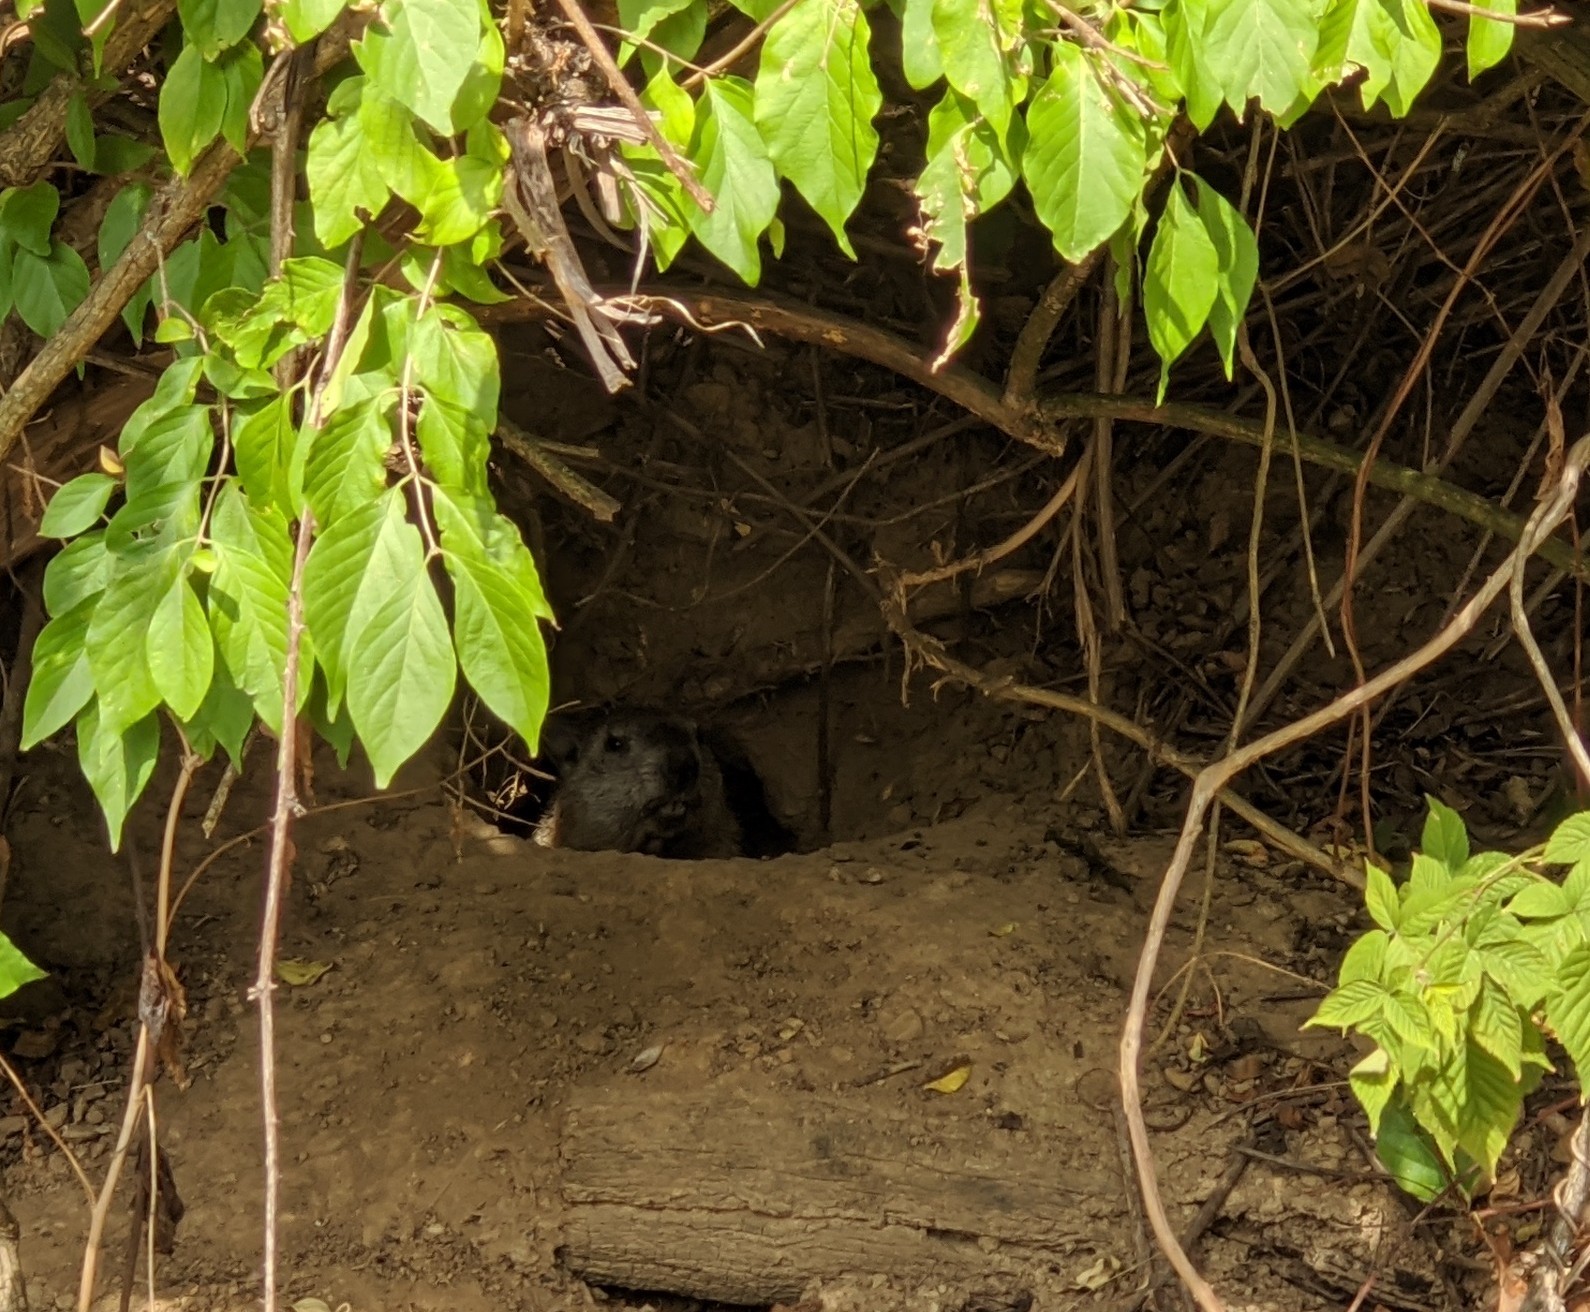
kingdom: Animalia
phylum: Chordata
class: Mammalia
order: Rodentia
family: Sciuridae
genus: Marmota
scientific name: Marmota monax
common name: Groundhog
